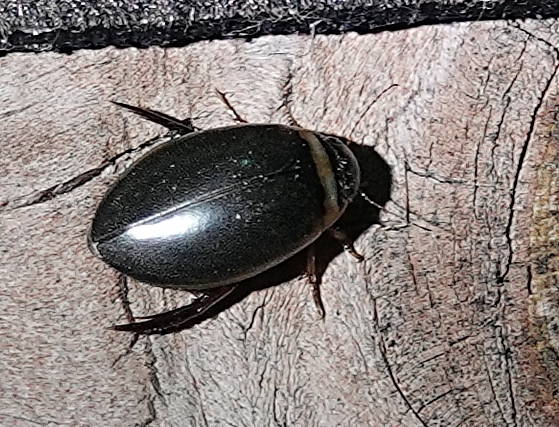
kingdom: Animalia
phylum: Arthropoda
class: Insecta
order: Coleoptera
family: Dytiscidae
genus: Graphoderus
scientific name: Graphoderus
